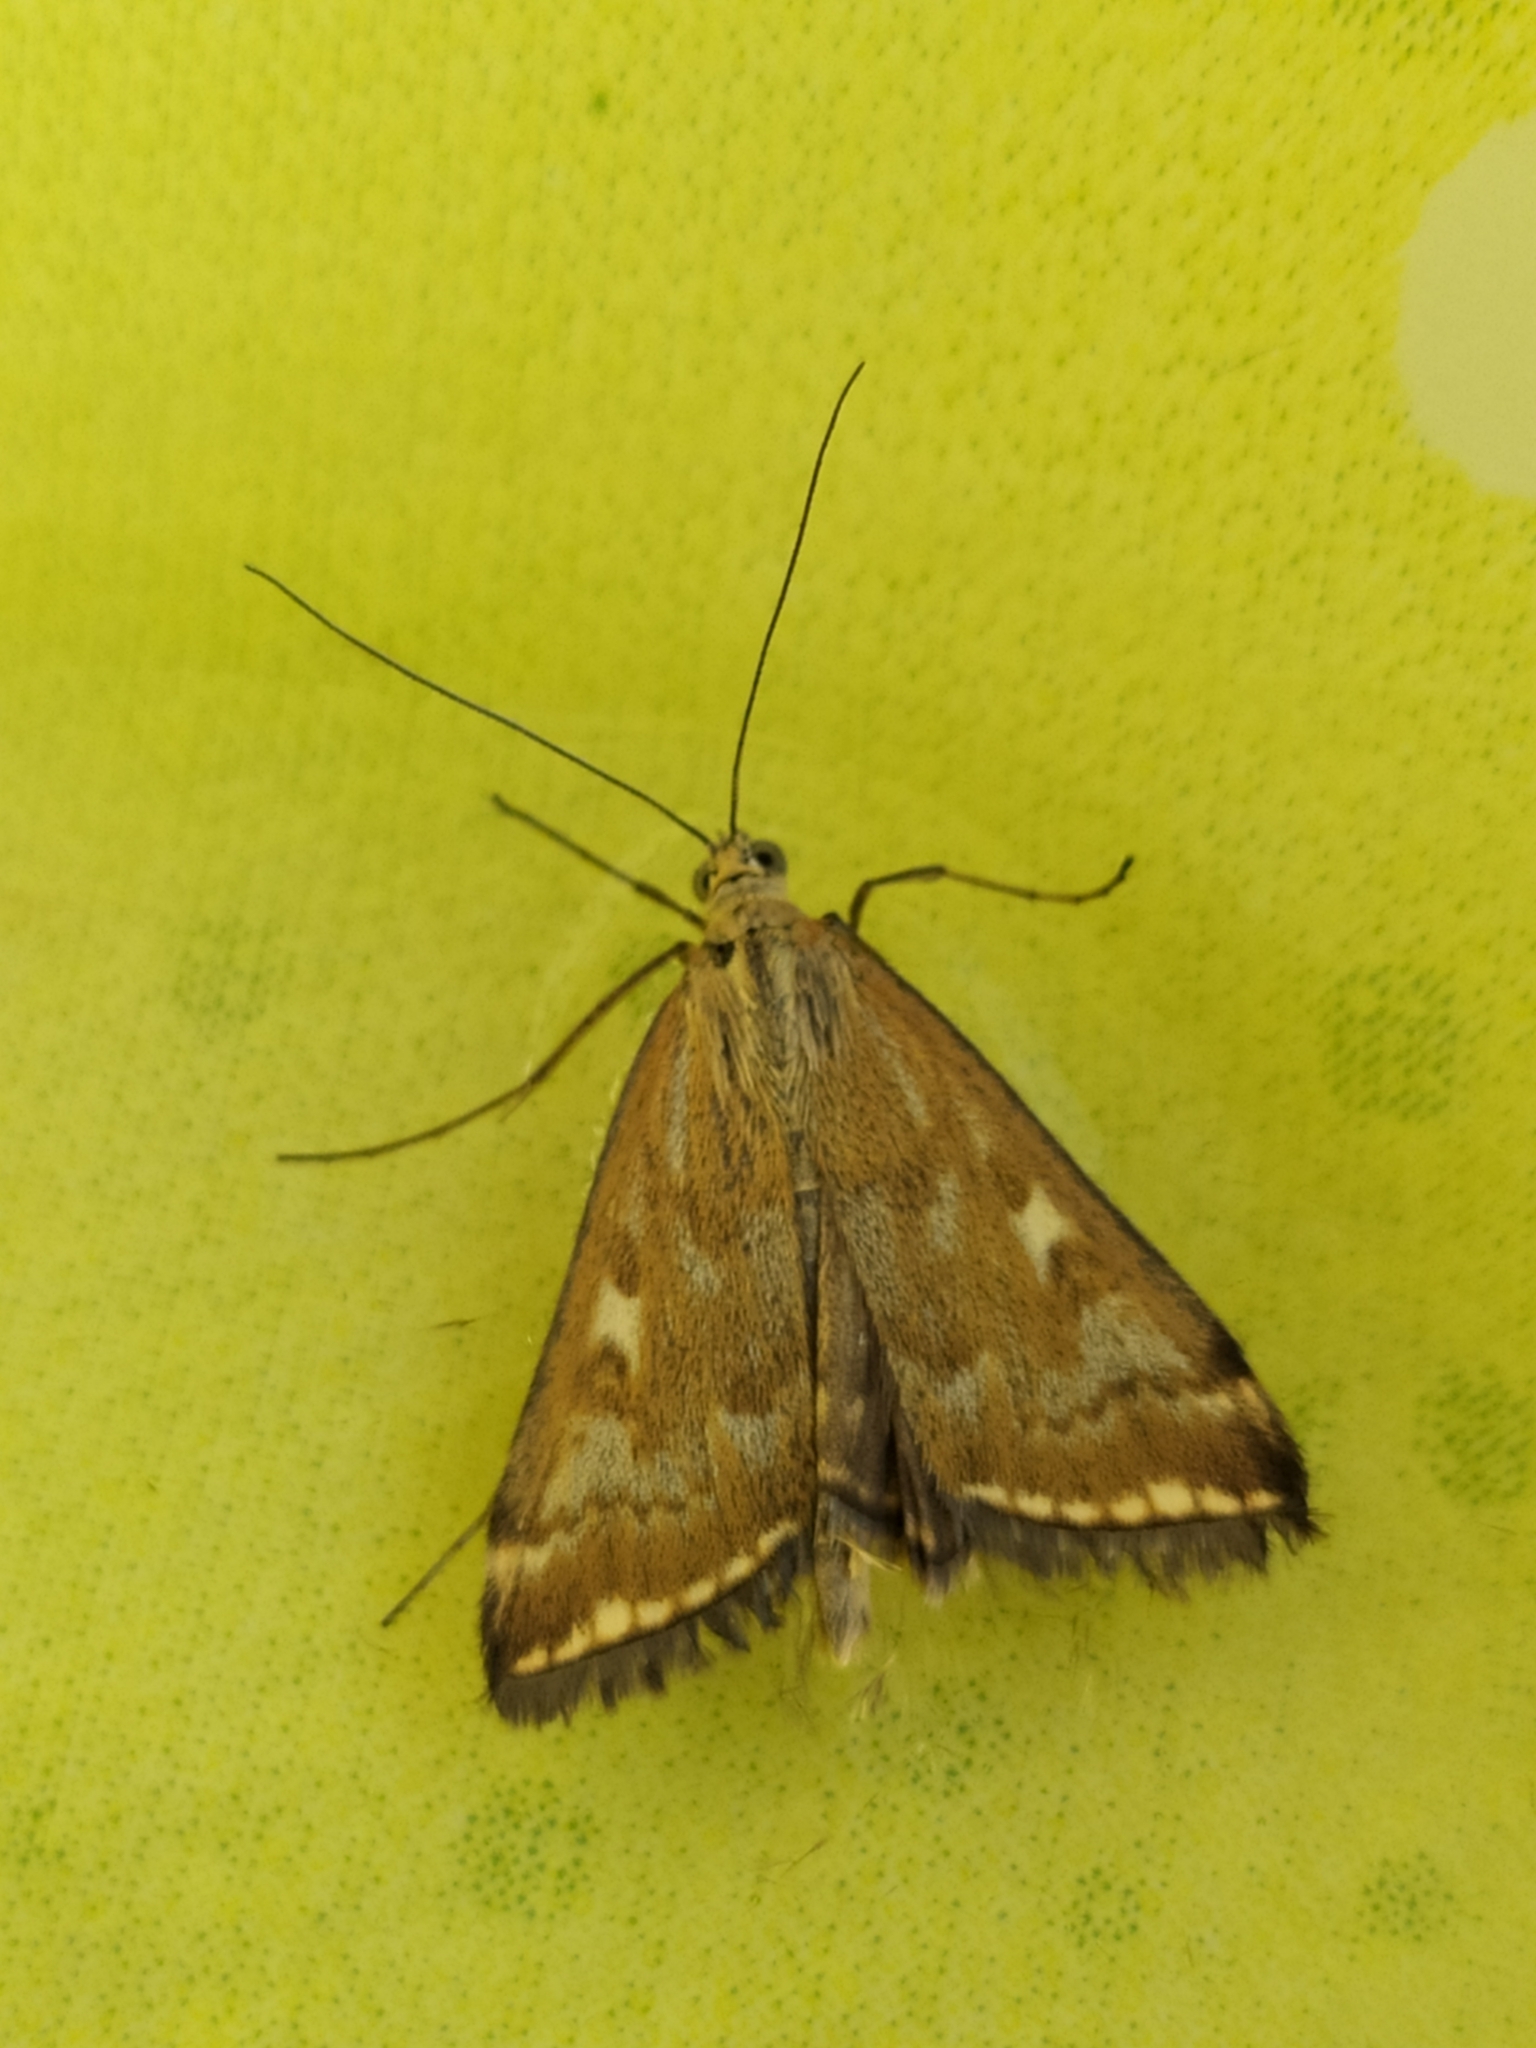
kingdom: Animalia
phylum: Arthropoda
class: Insecta
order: Lepidoptera
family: Crambidae
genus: Loxostege
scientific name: Loxostege sticticalis
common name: Crambid moth
